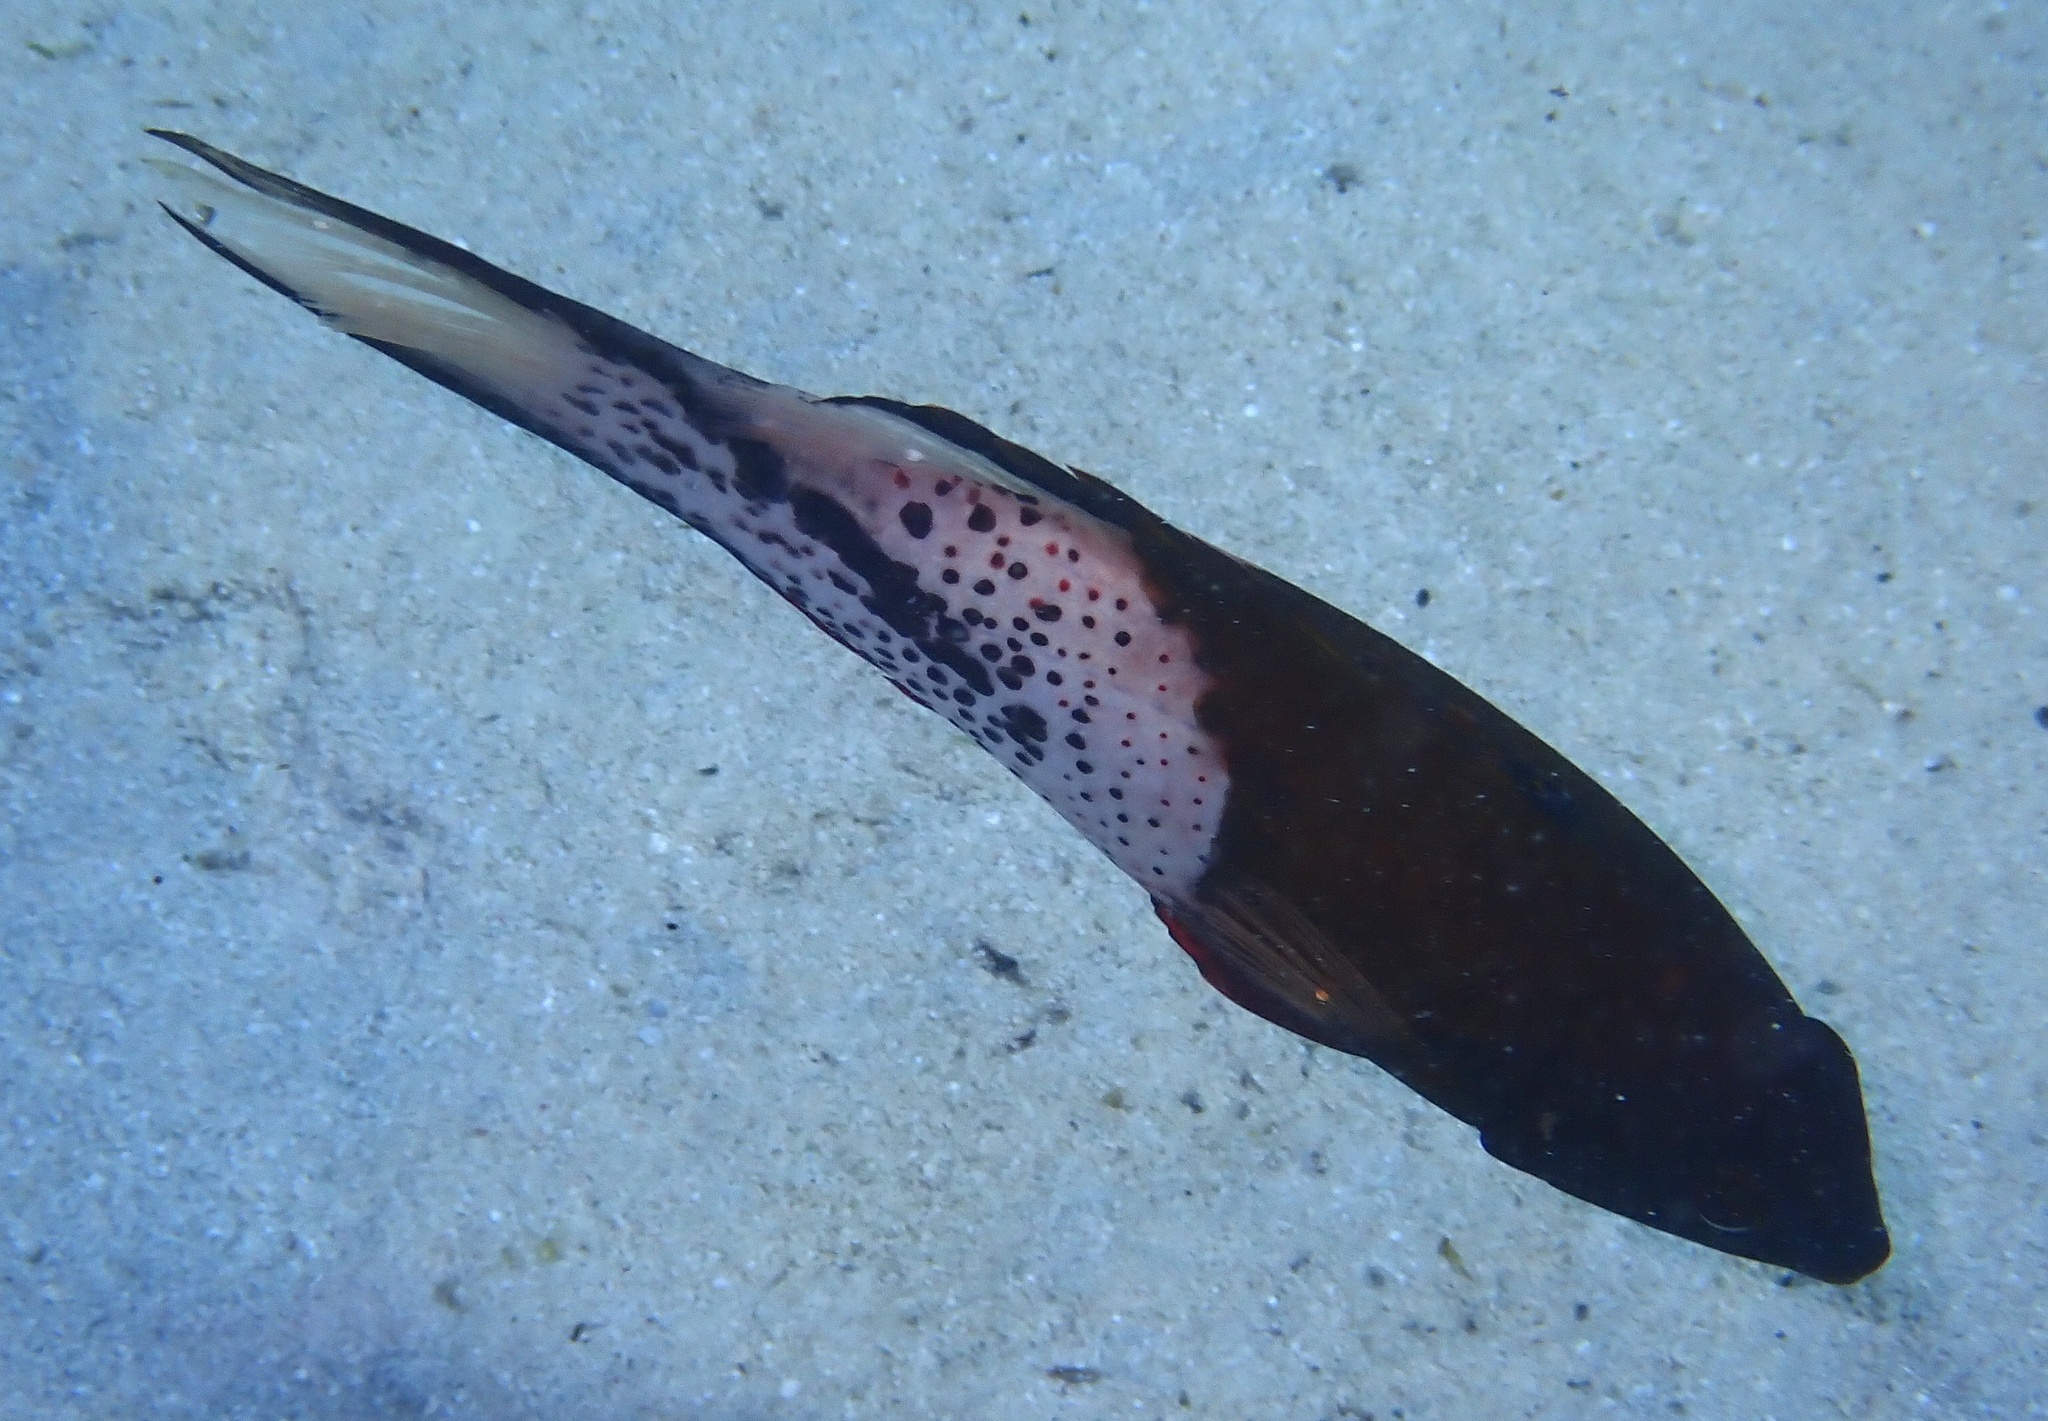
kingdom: Animalia
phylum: Chordata
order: Perciformes
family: Labridae
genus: Bodianus
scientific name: Bodianus anthioides
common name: Lyretail hogfish
